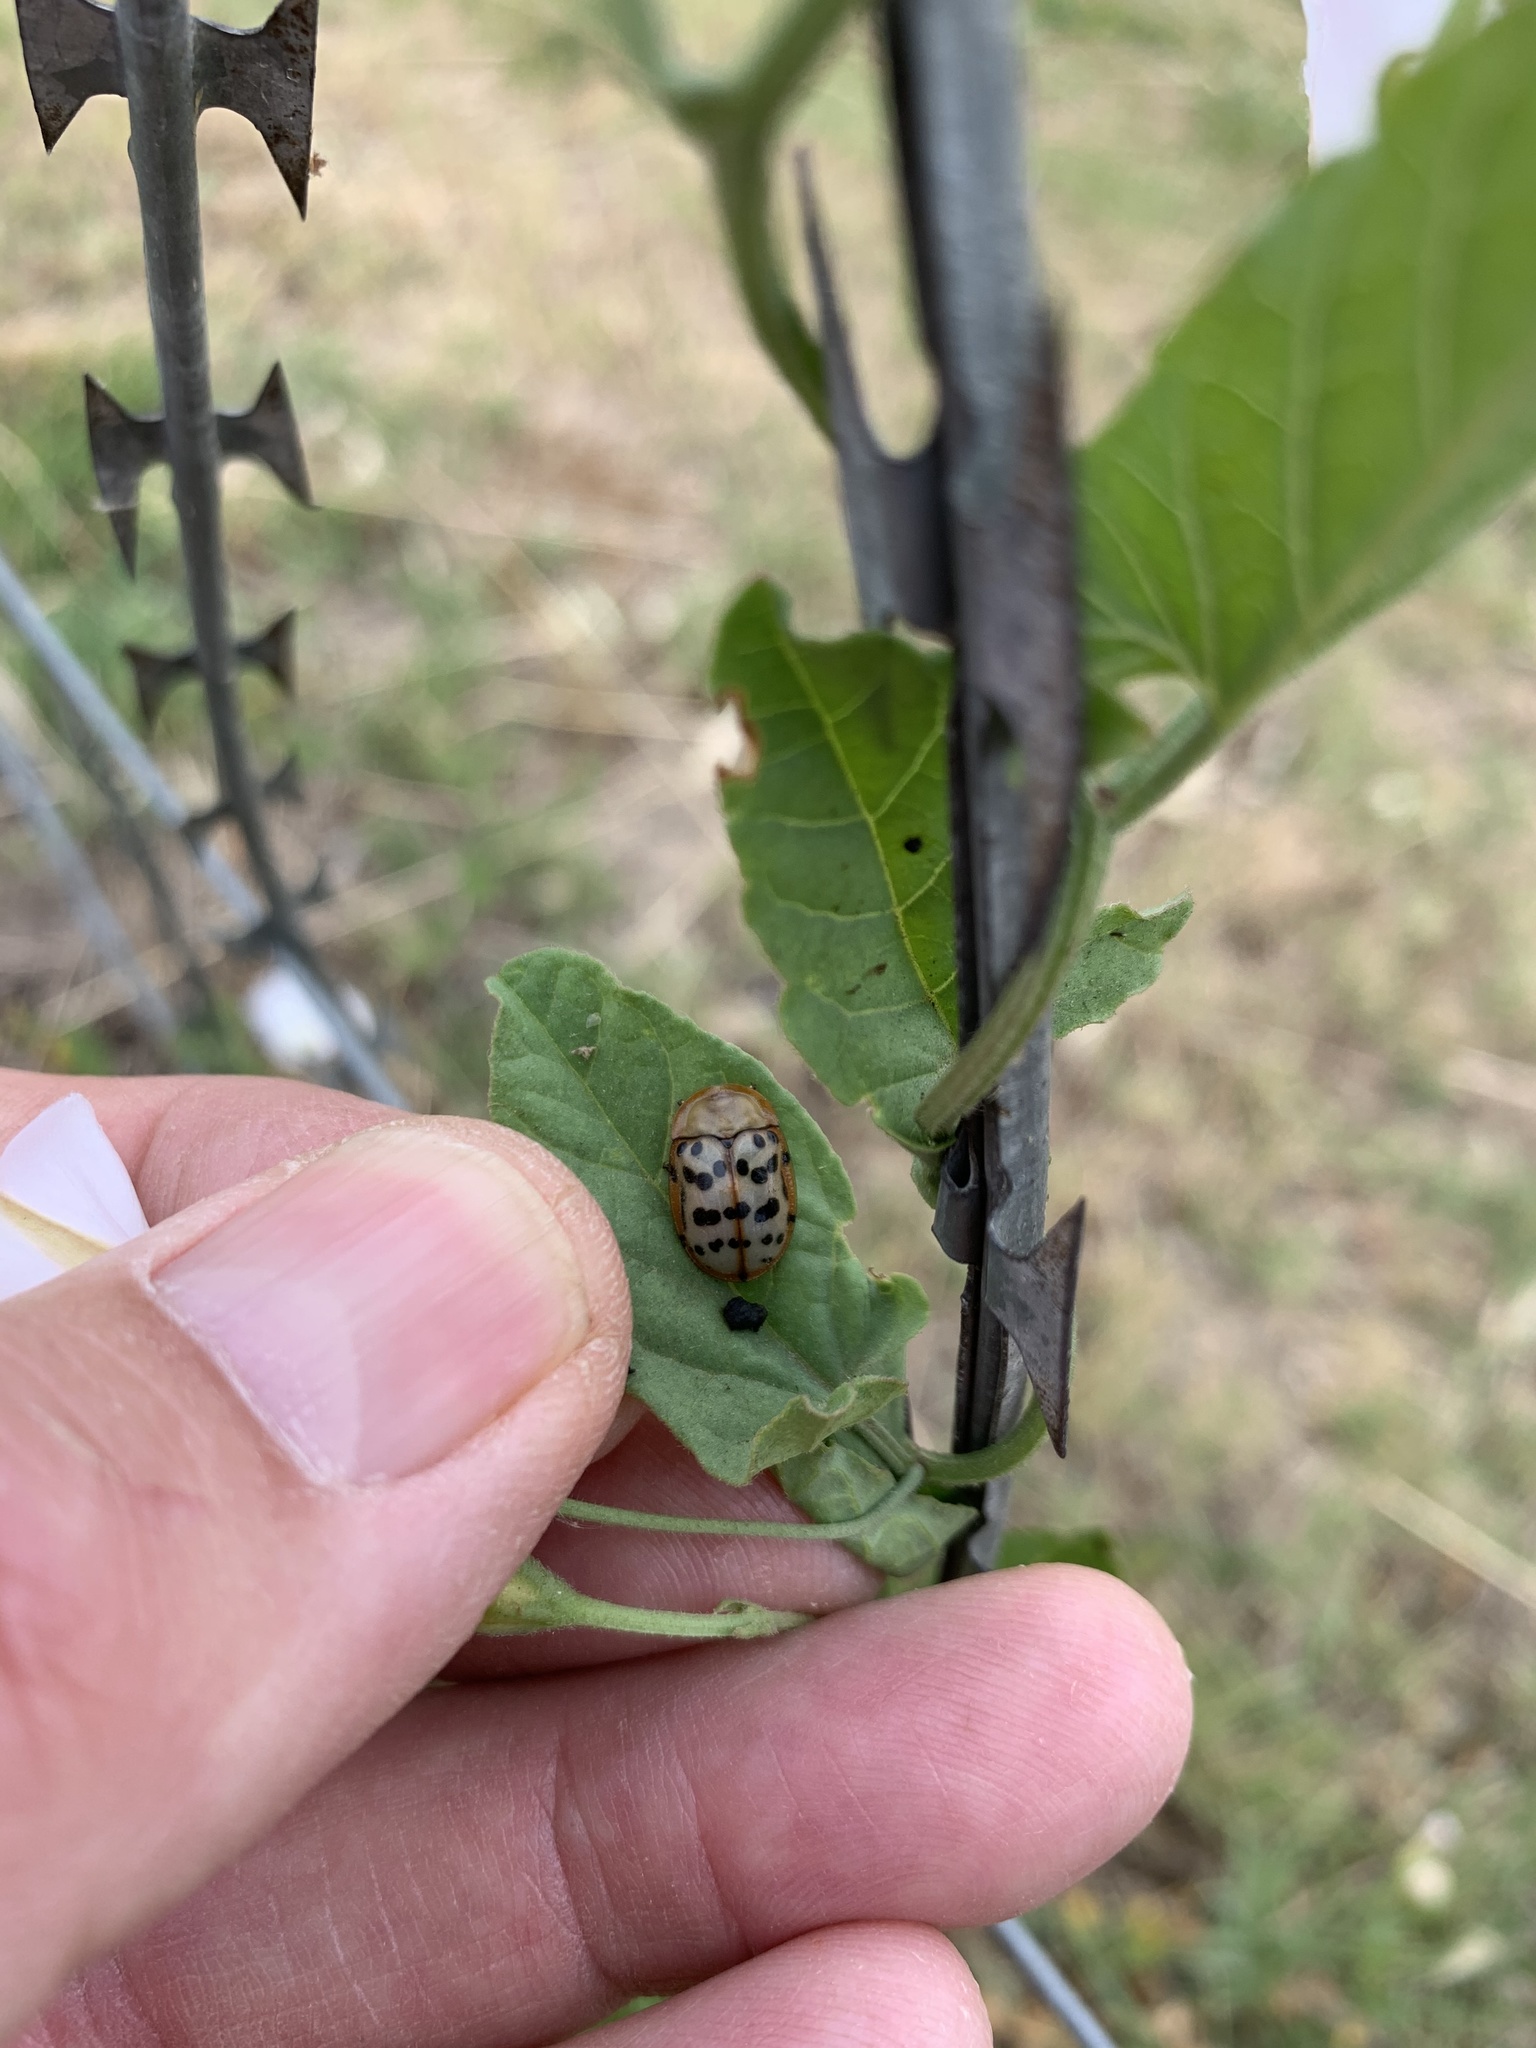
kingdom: Animalia
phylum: Arthropoda
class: Insecta
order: Coleoptera
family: Chrysomelidae
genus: Conchyloctenia
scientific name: Conchyloctenia punctata
